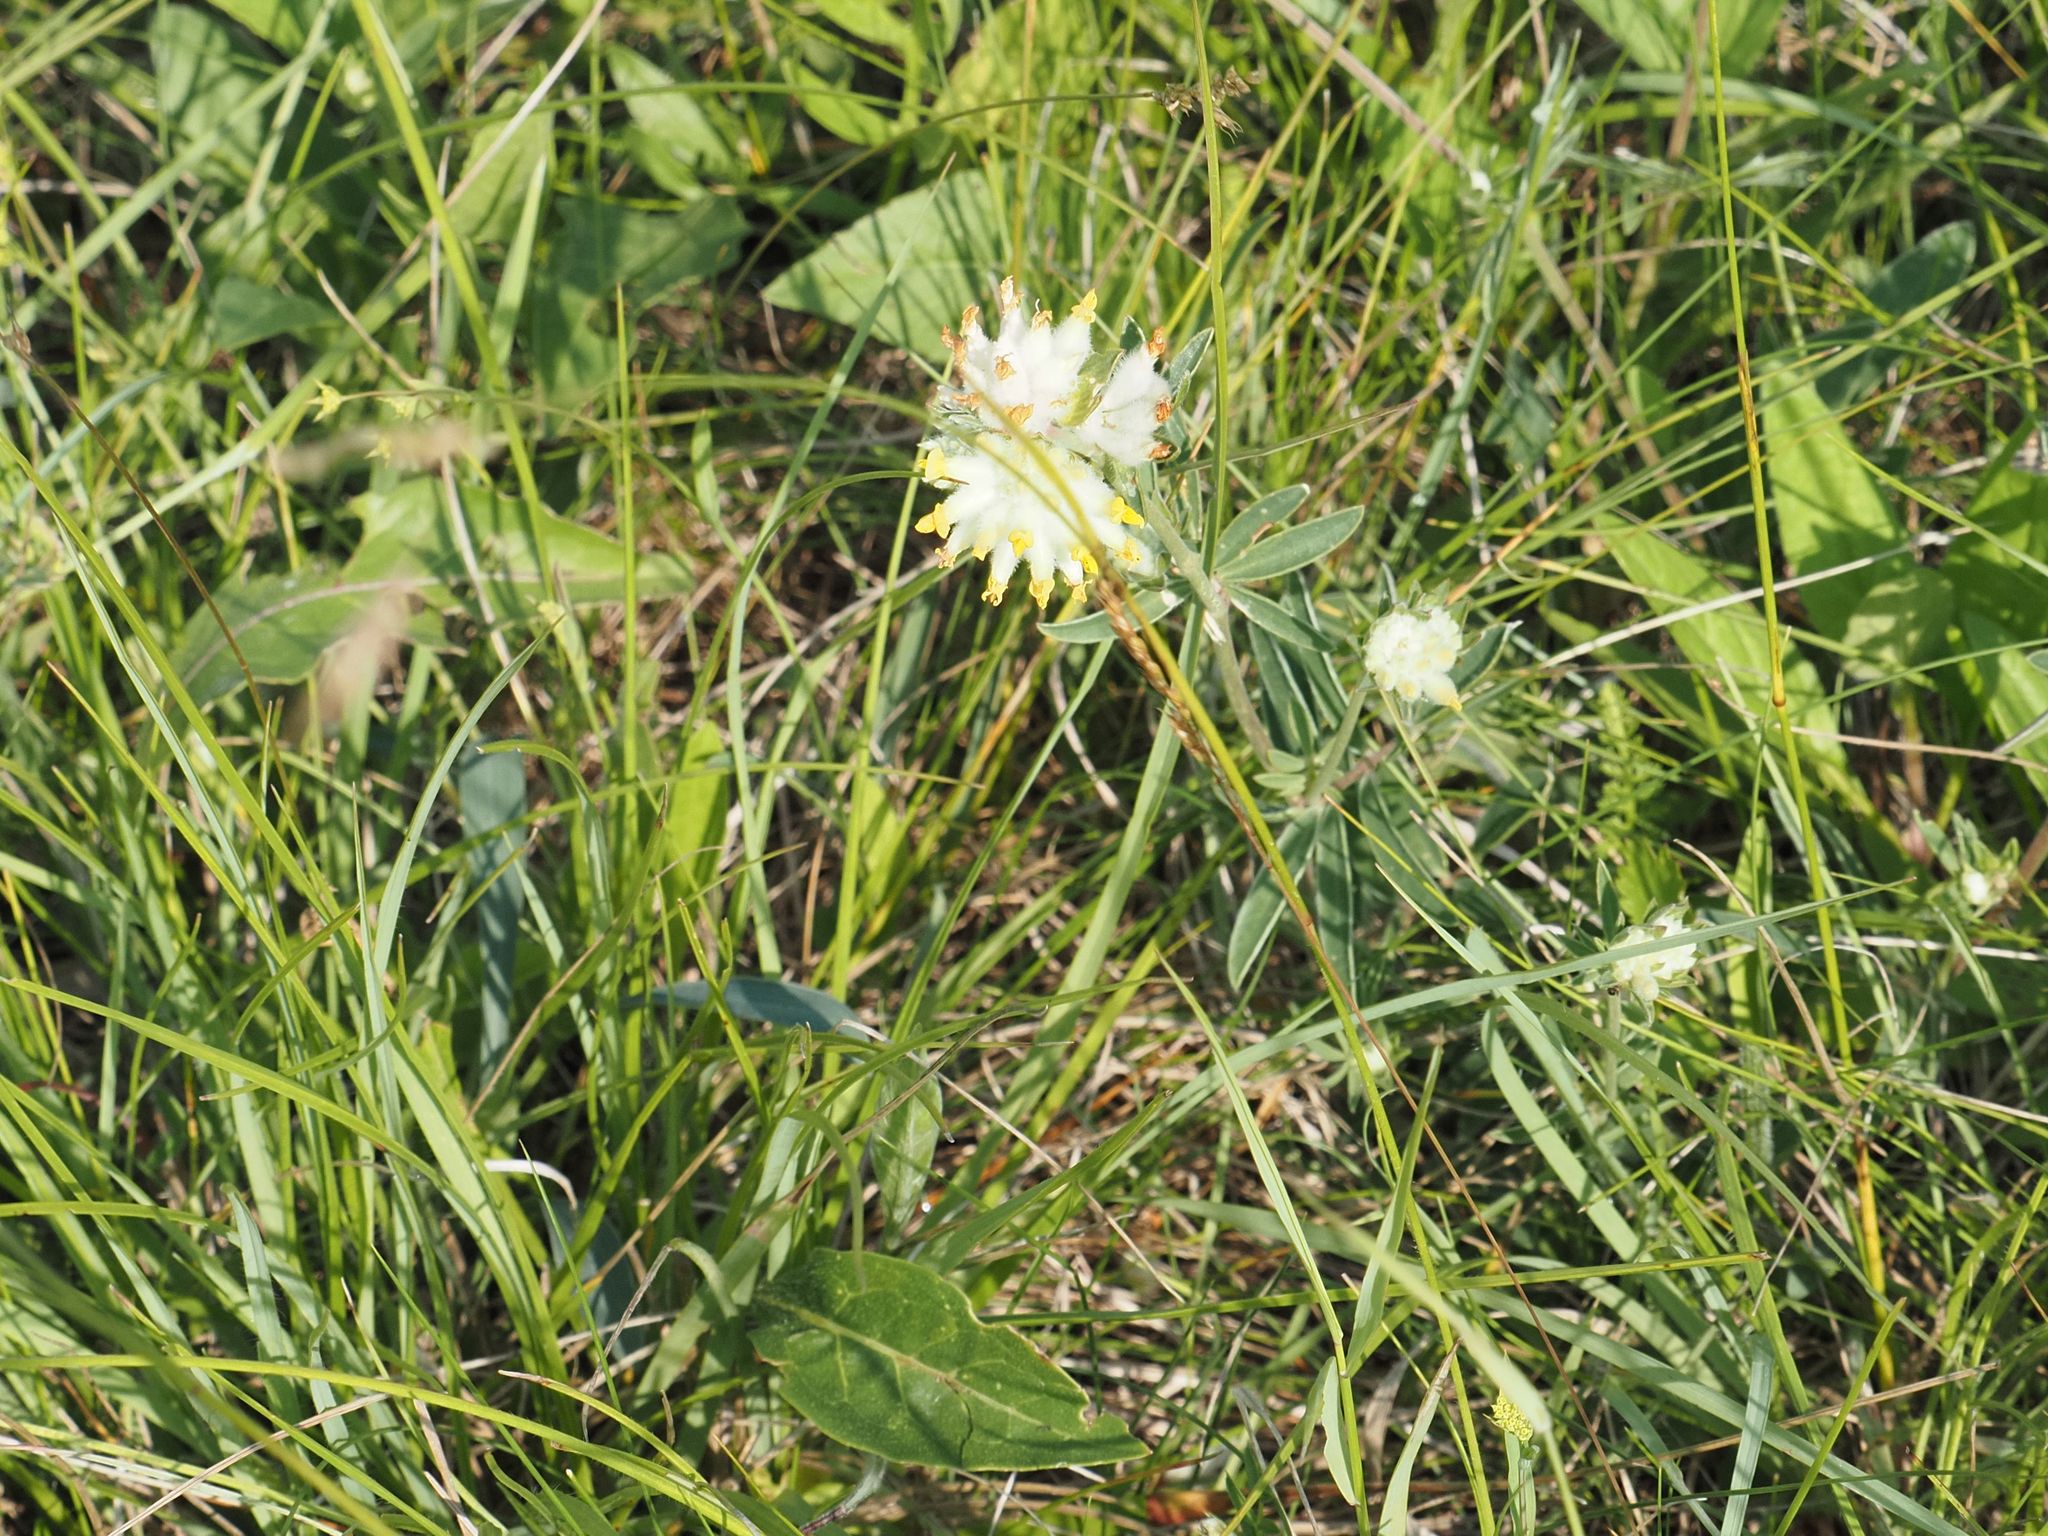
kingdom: Plantae
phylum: Tracheophyta
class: Magnoliopsida
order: Fabales
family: Fabaceae
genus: Anthyllis
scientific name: Anthyllis vulneraria
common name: Kidney vetch
